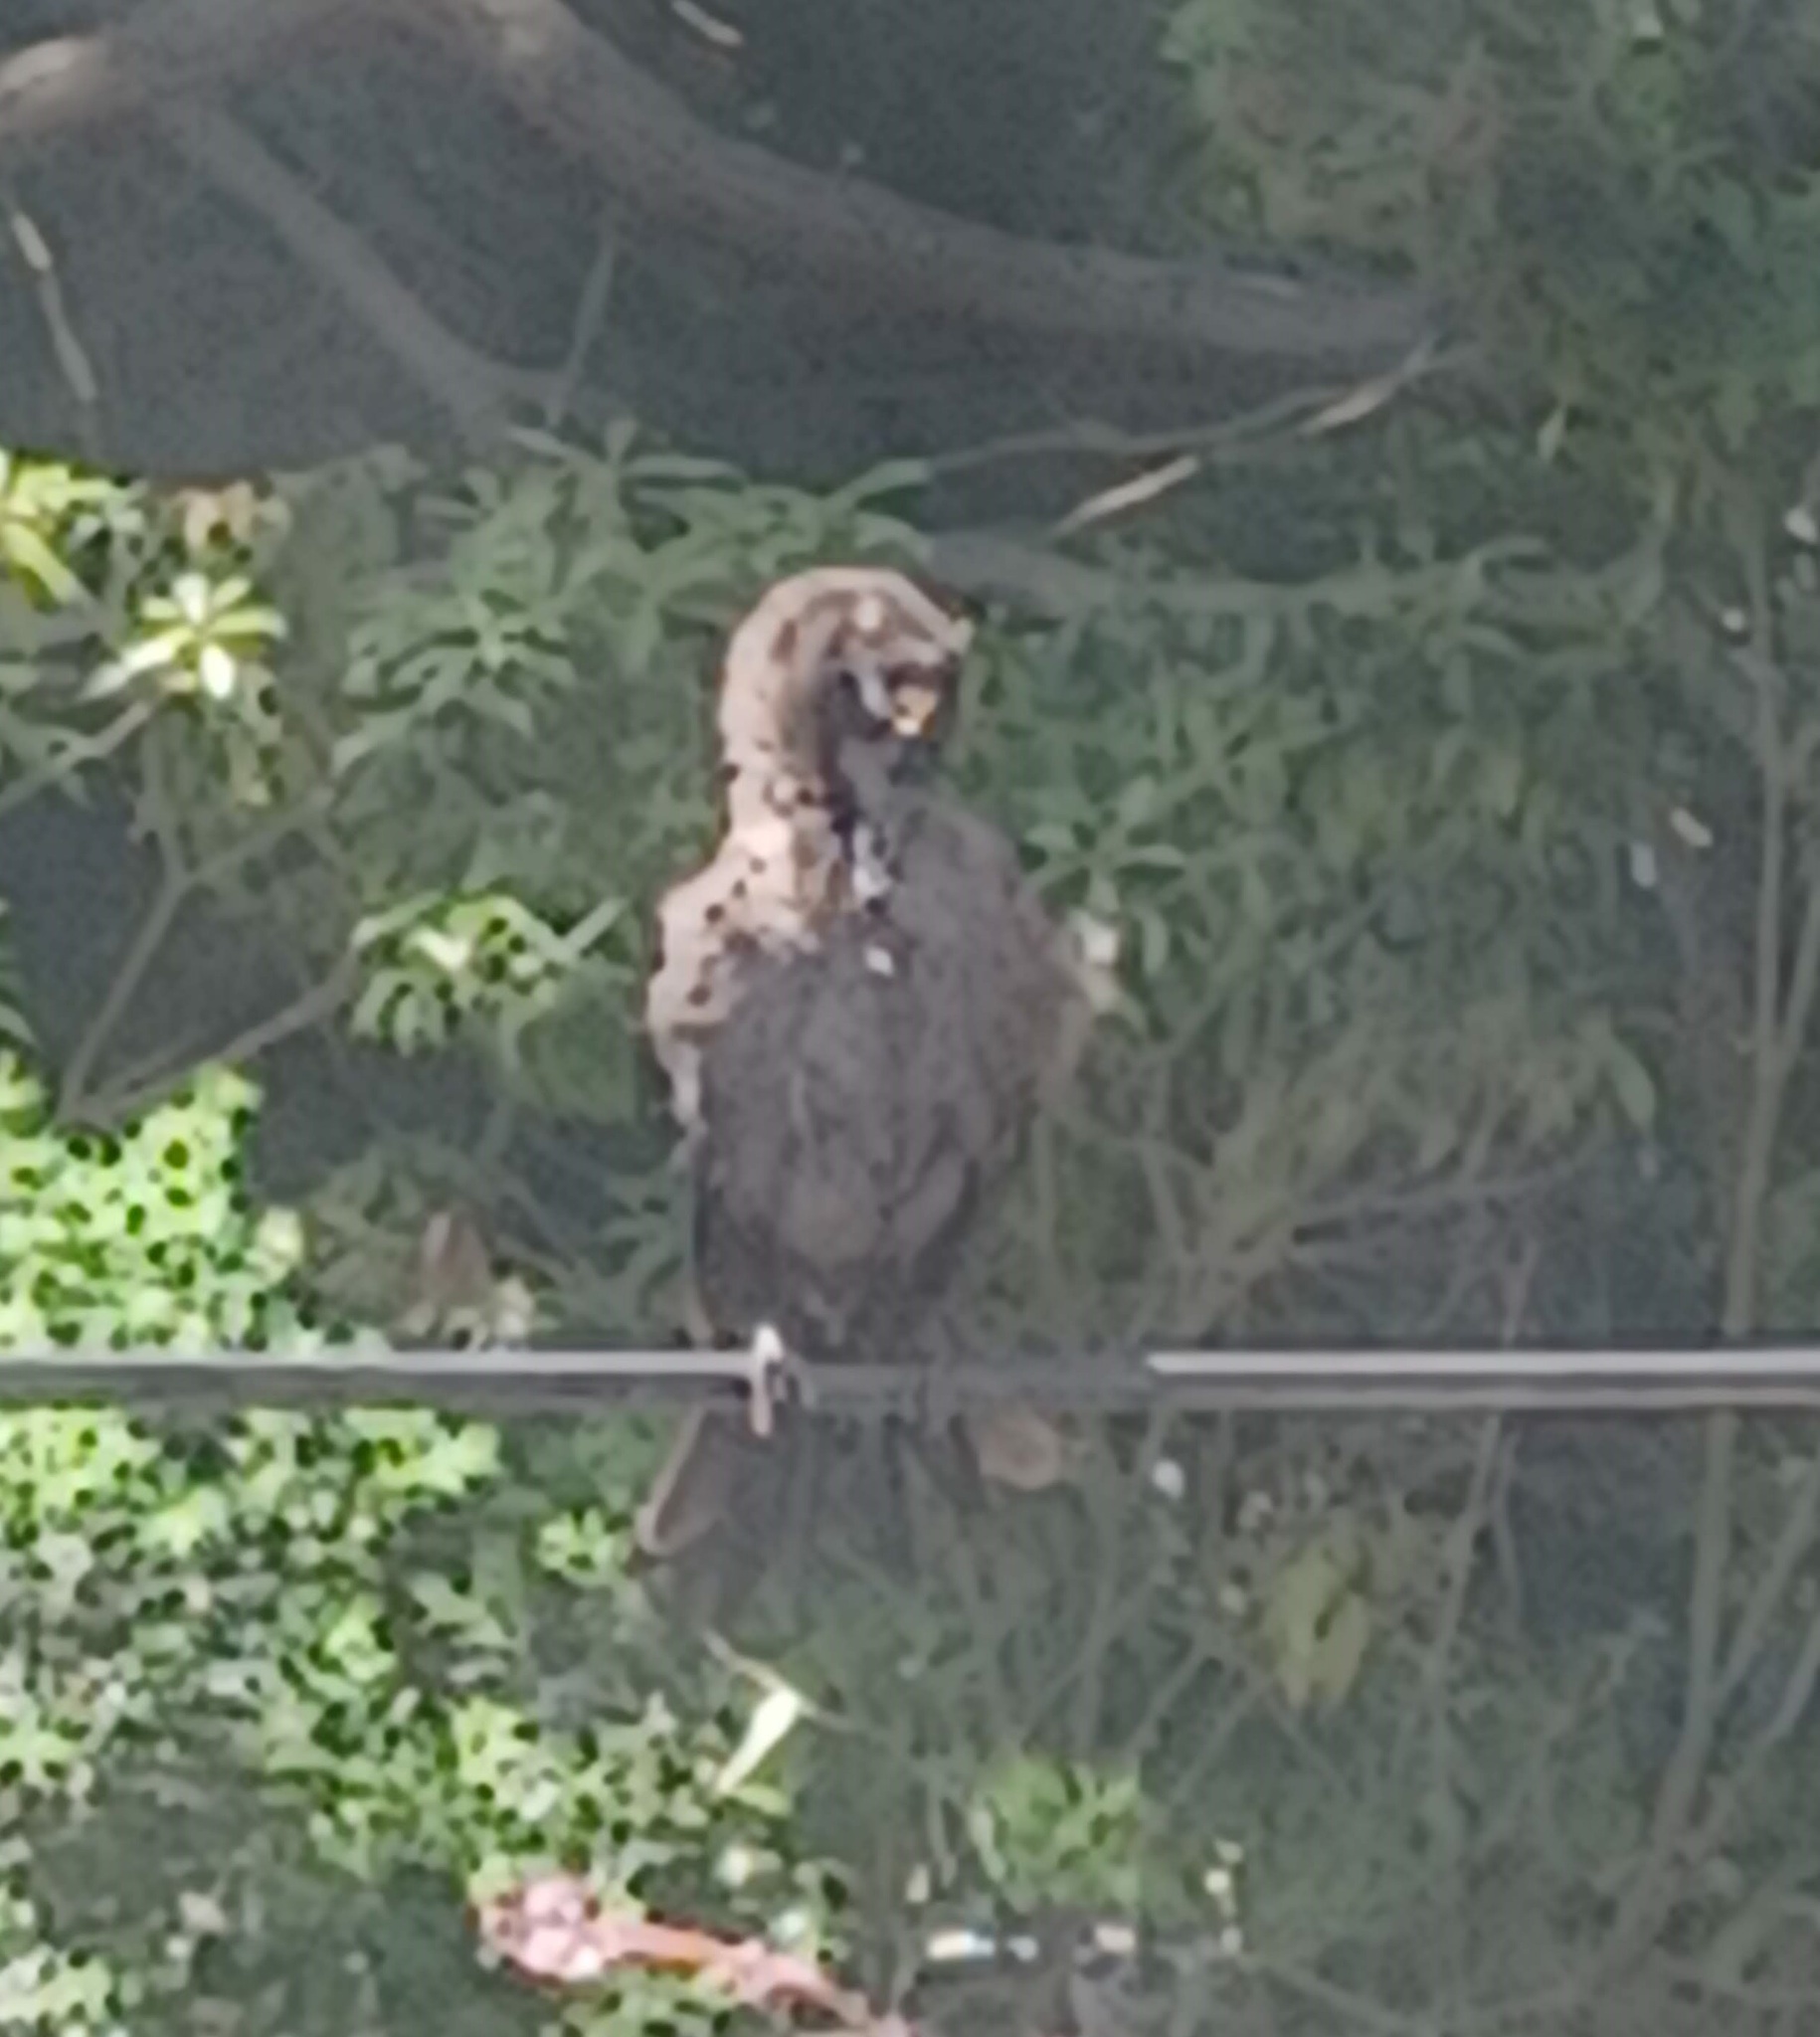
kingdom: Animalia
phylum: Chordata
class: Aves
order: Passeriformes
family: Icteridae
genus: Quiscalus
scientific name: Quiscalus quiscula
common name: Common grackle
